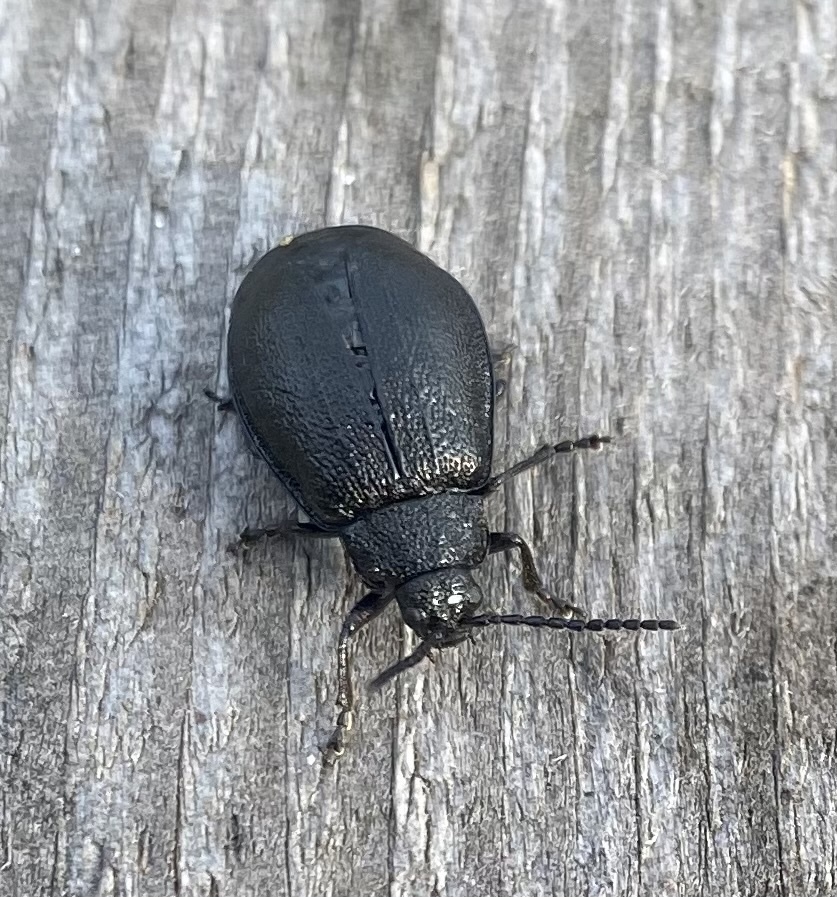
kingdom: Animalia
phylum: Arthropoda
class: Insecta
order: Coleoptera
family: Chrysomelidae
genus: Galeruca
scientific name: Galeruca tanaceti
